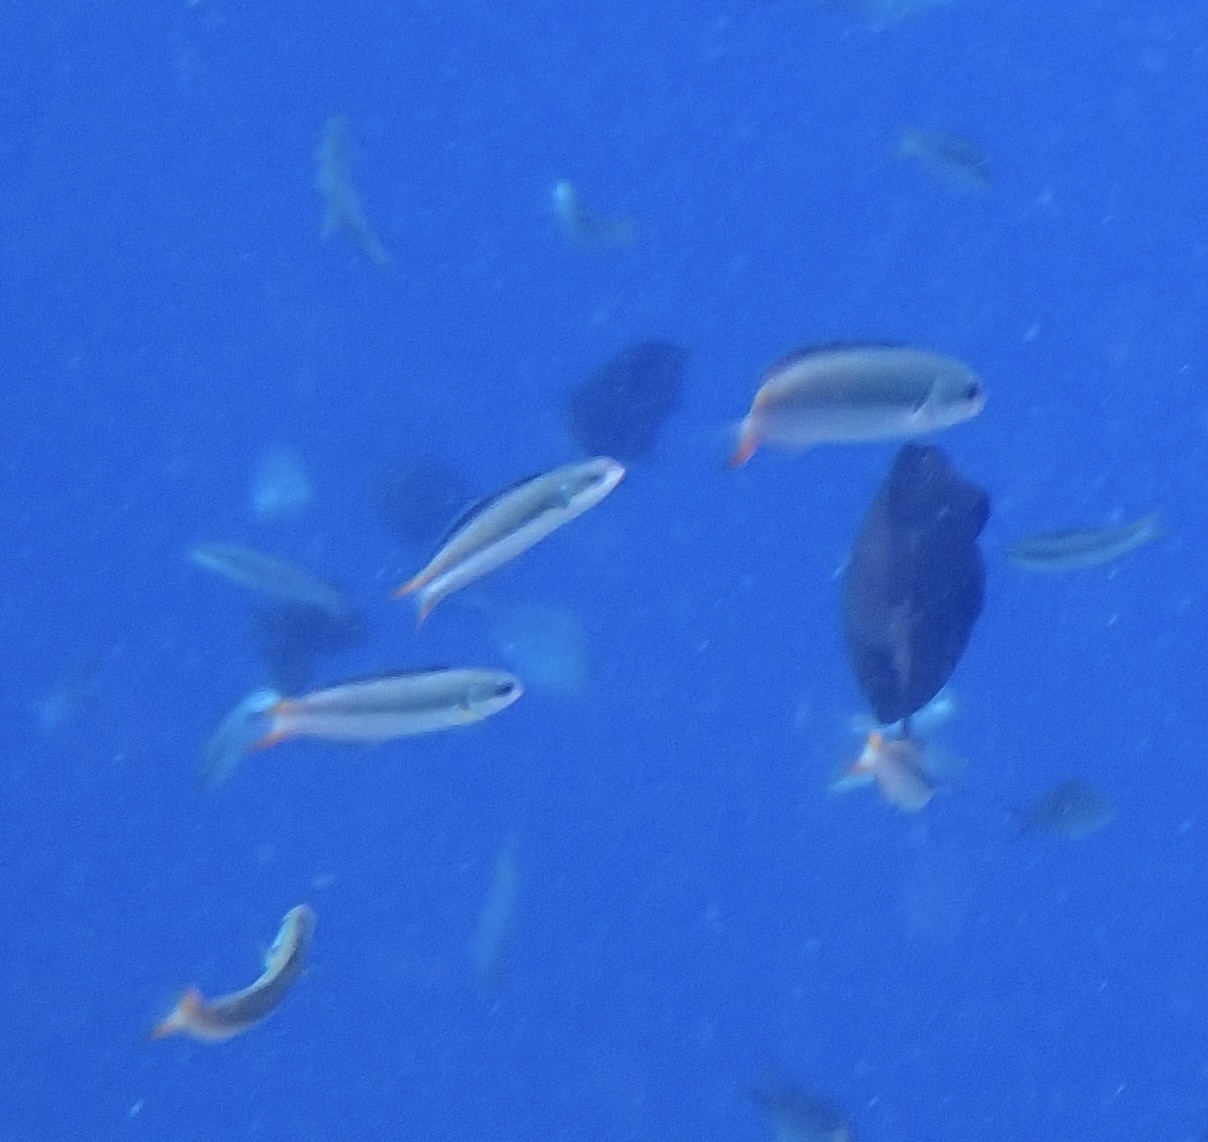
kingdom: Animalia
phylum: Chordata
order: Perciformes
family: Labridae
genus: Thalassoma
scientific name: Thalassoma amblycephalum
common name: Bluehead wrasse
